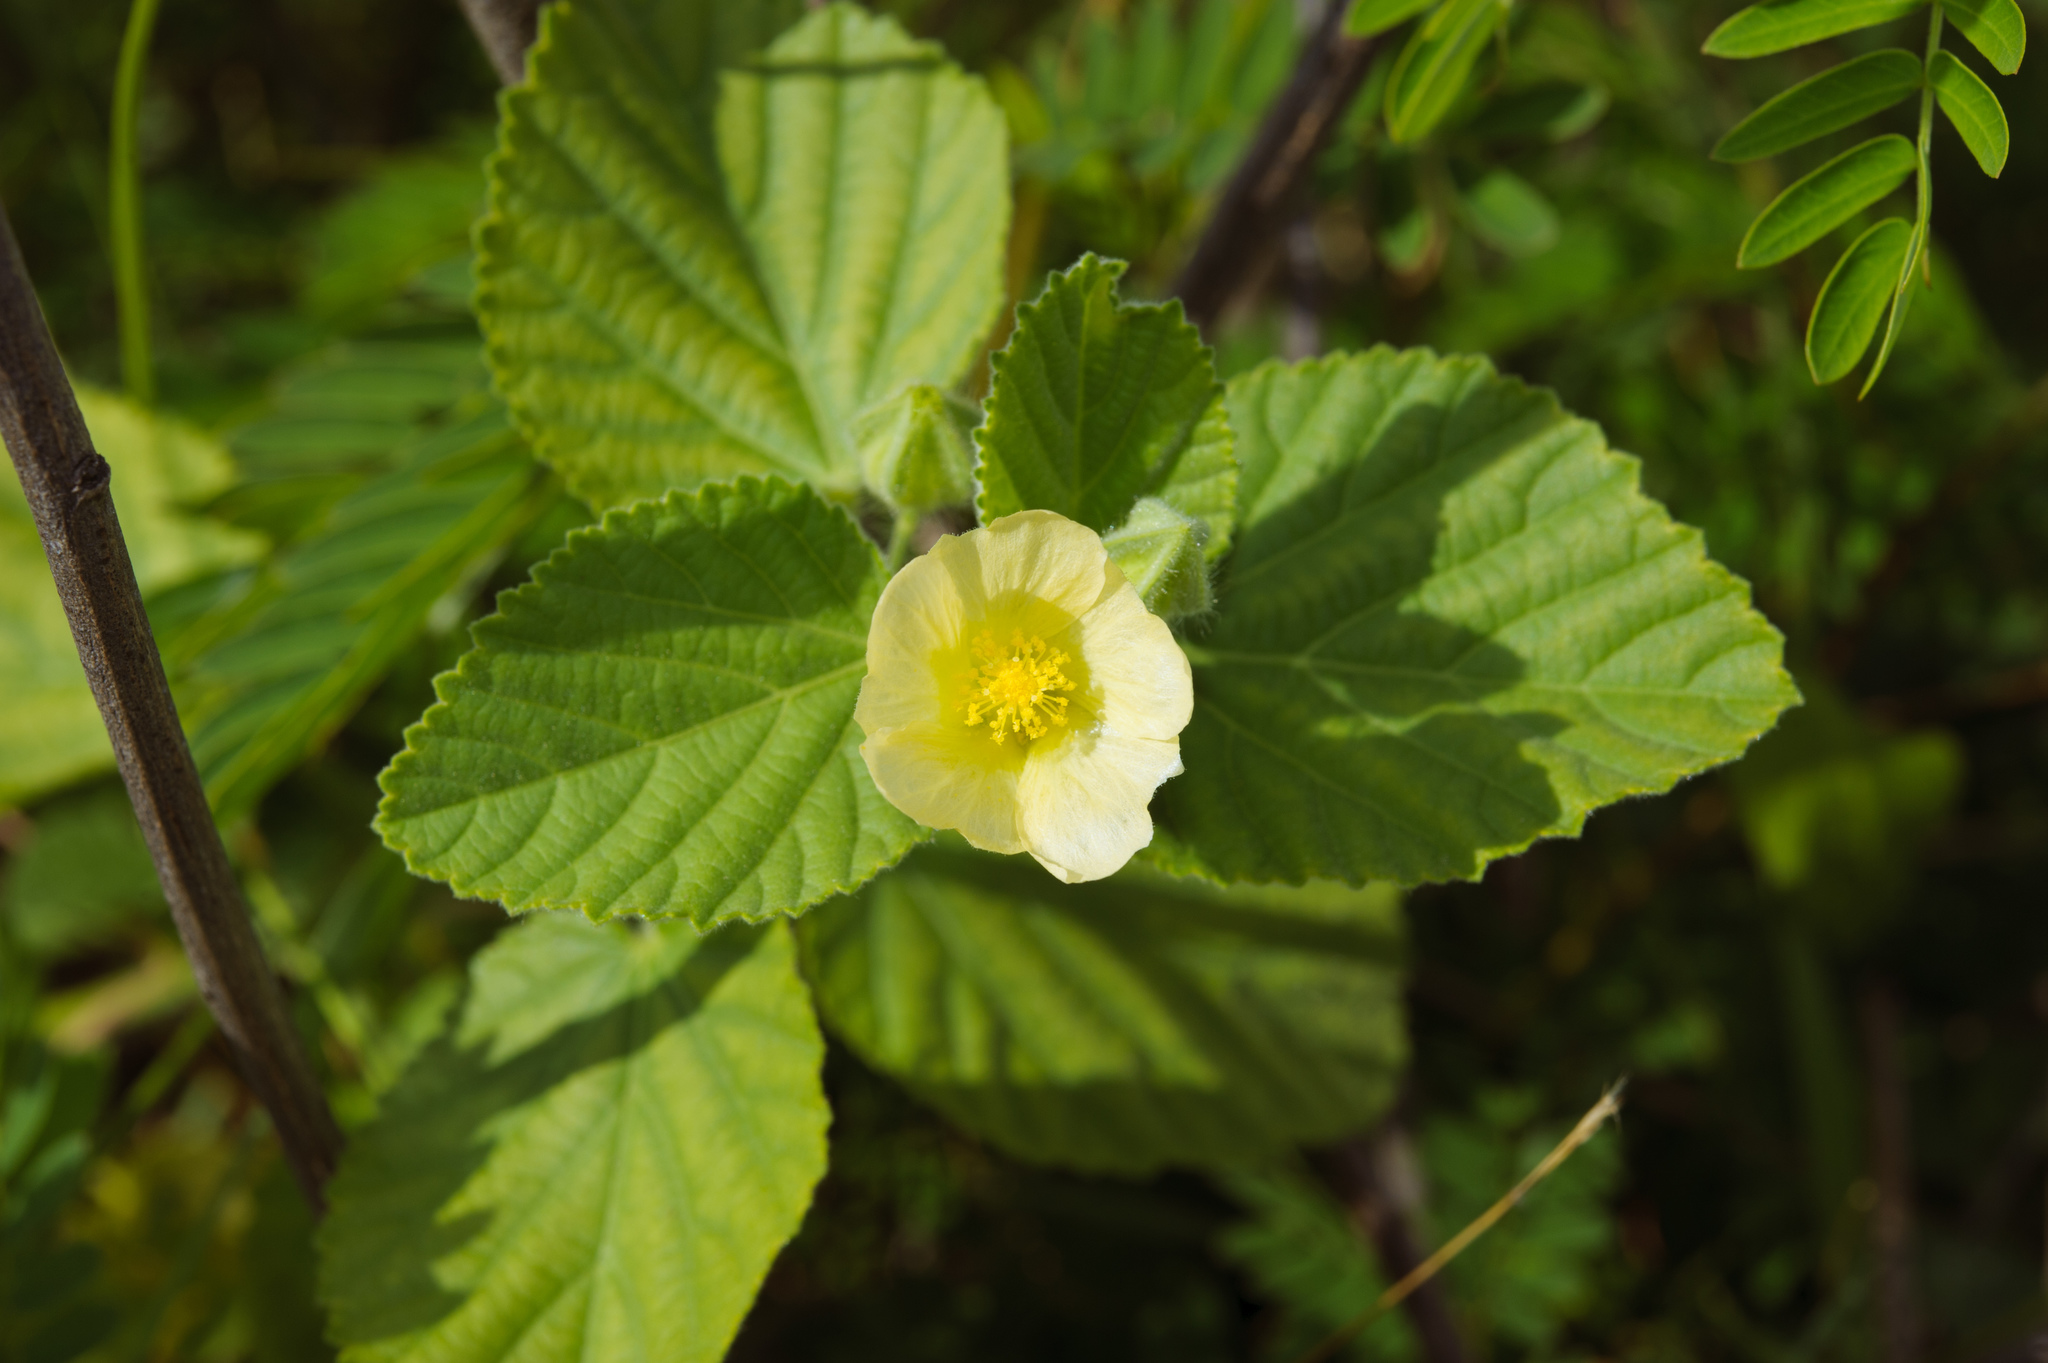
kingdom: Plantae
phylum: Tracheophyta
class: Magnoliopsida
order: Malvales
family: Malvaceae
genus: Sida
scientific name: Sida rhombifolia
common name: Queensland-hemp
